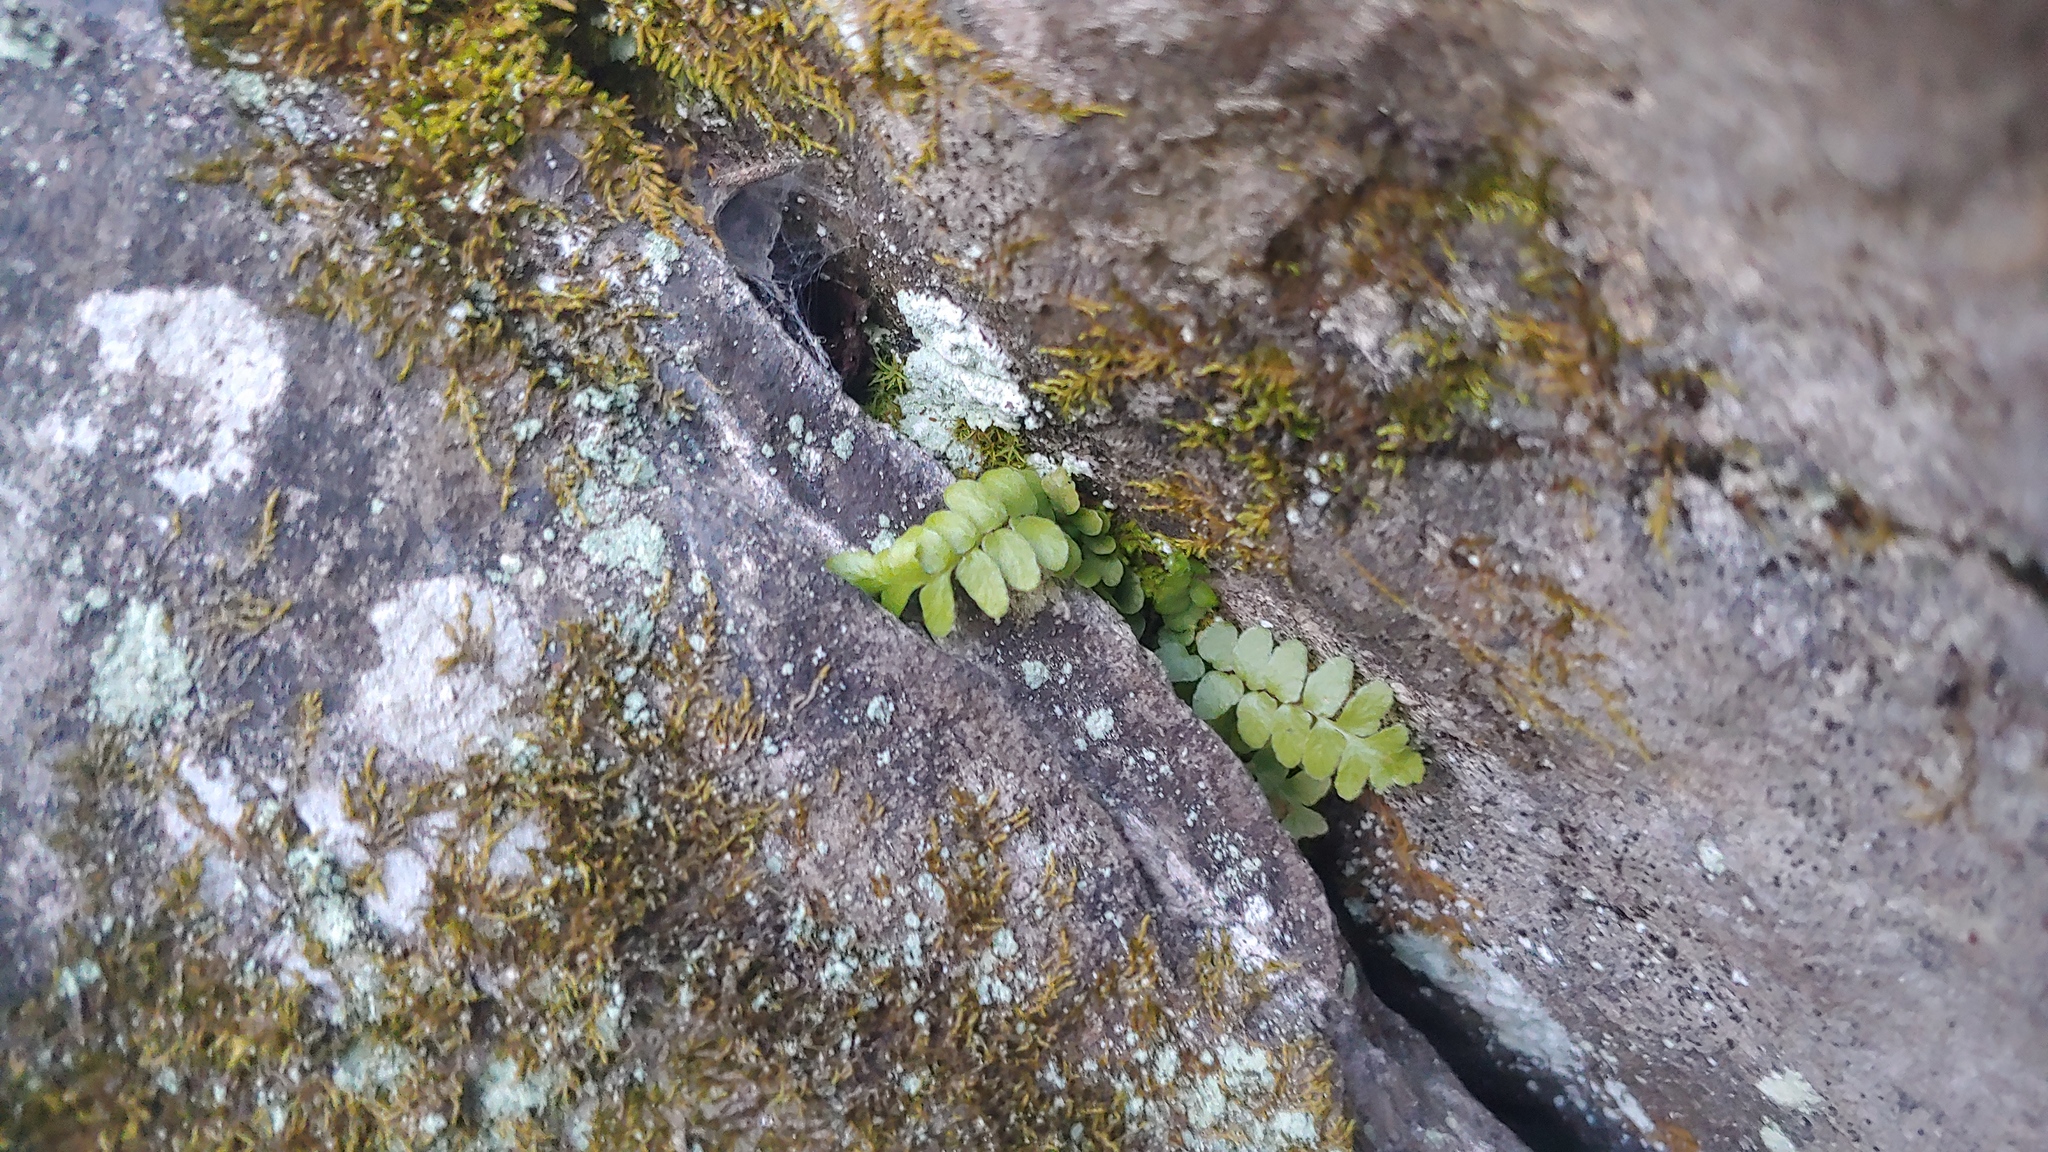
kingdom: Plantae
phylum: Tracheophyta
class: Polypodiopsida
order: Polypodiales
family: Aspleniaceae
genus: Asplenium
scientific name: Asplenium platyneuron
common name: Ebony spleenwort
